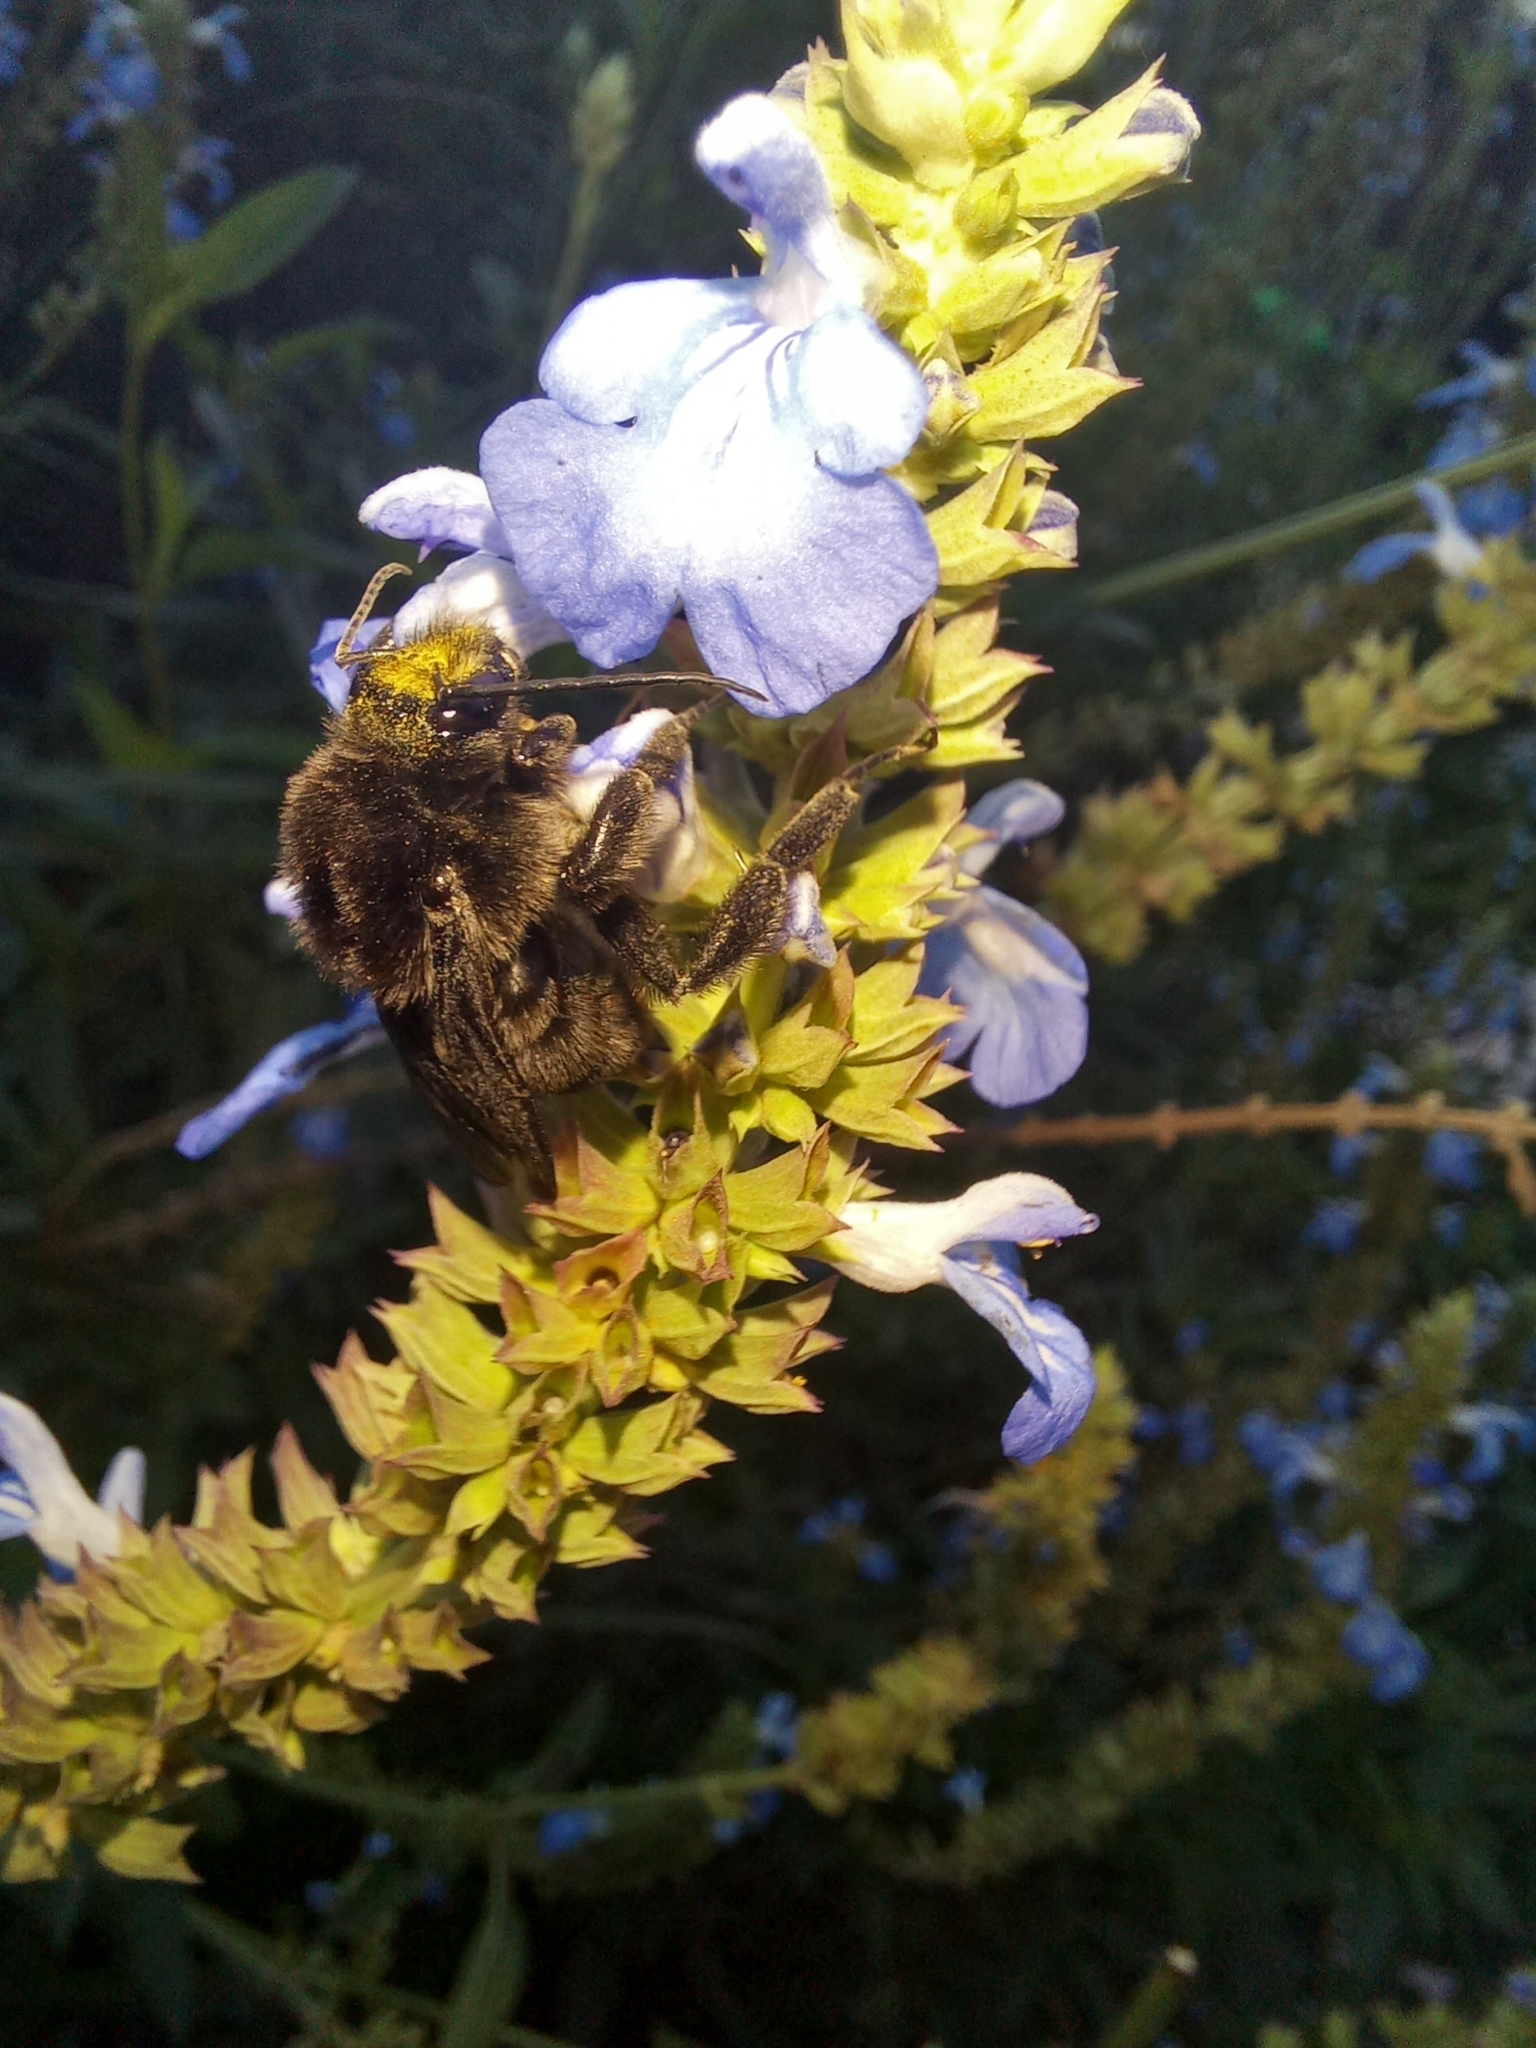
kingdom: Animalia
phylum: Arthropoda
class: Insecta
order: Hymenoptera
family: Apidae
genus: Bombus
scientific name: Bombus pauloensis
